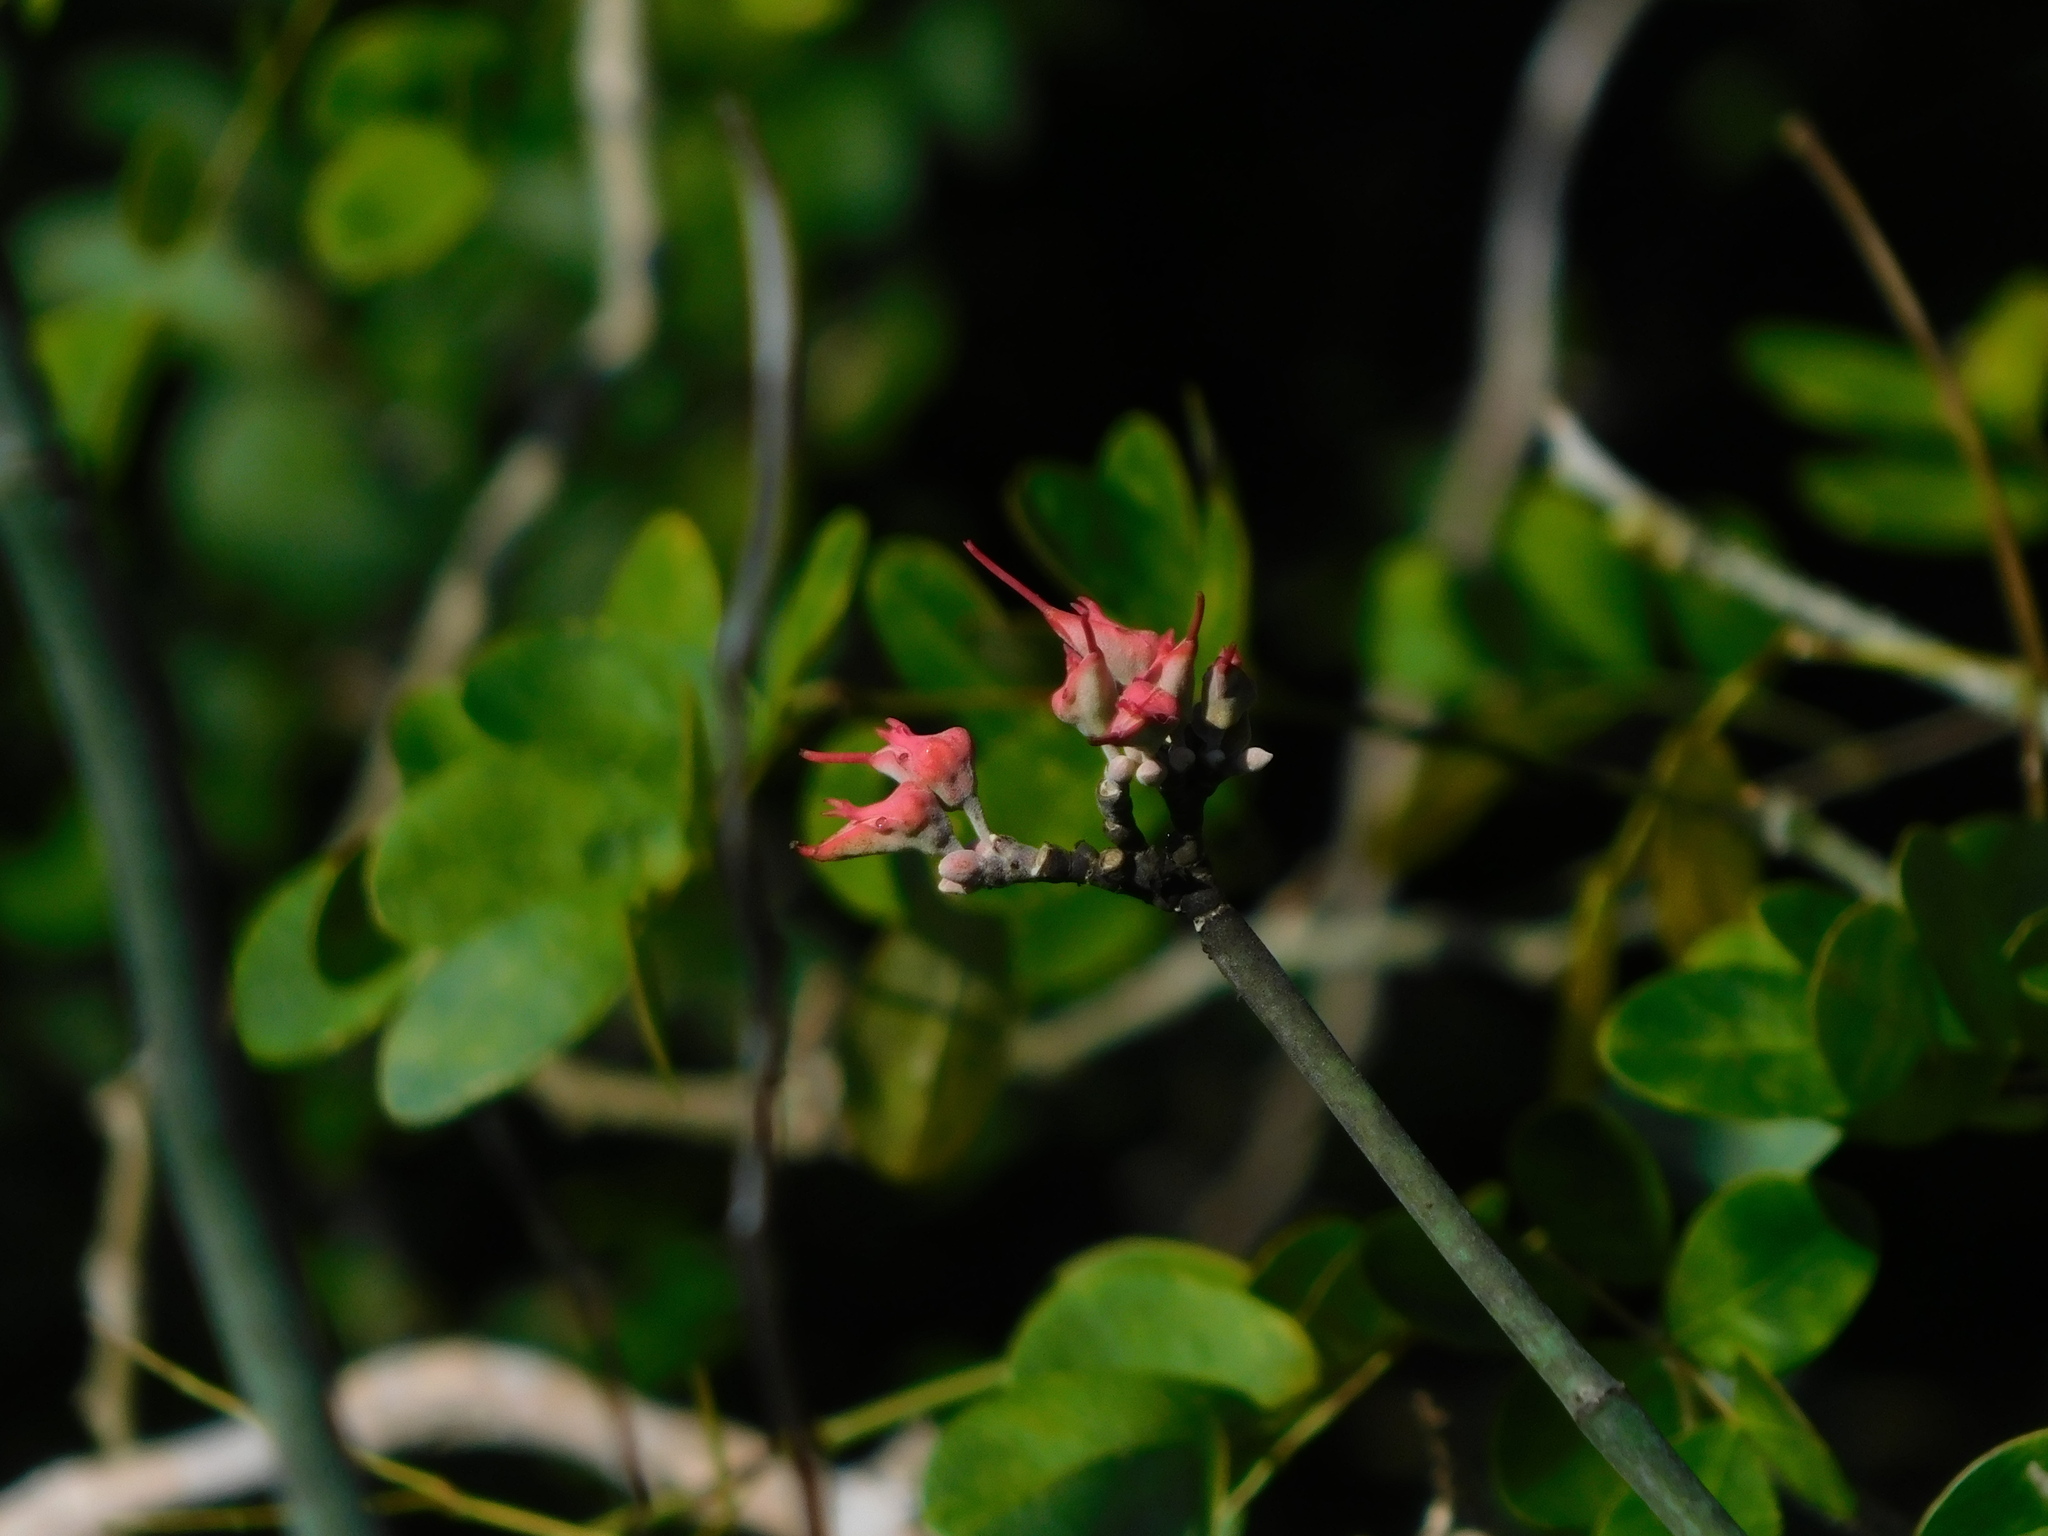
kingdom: Plantae
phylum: Tracheophyta
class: Magnoliopsida
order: Malpighiales
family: Euphorbiaceae
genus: Euphorbia
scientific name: Euphorbia personata
